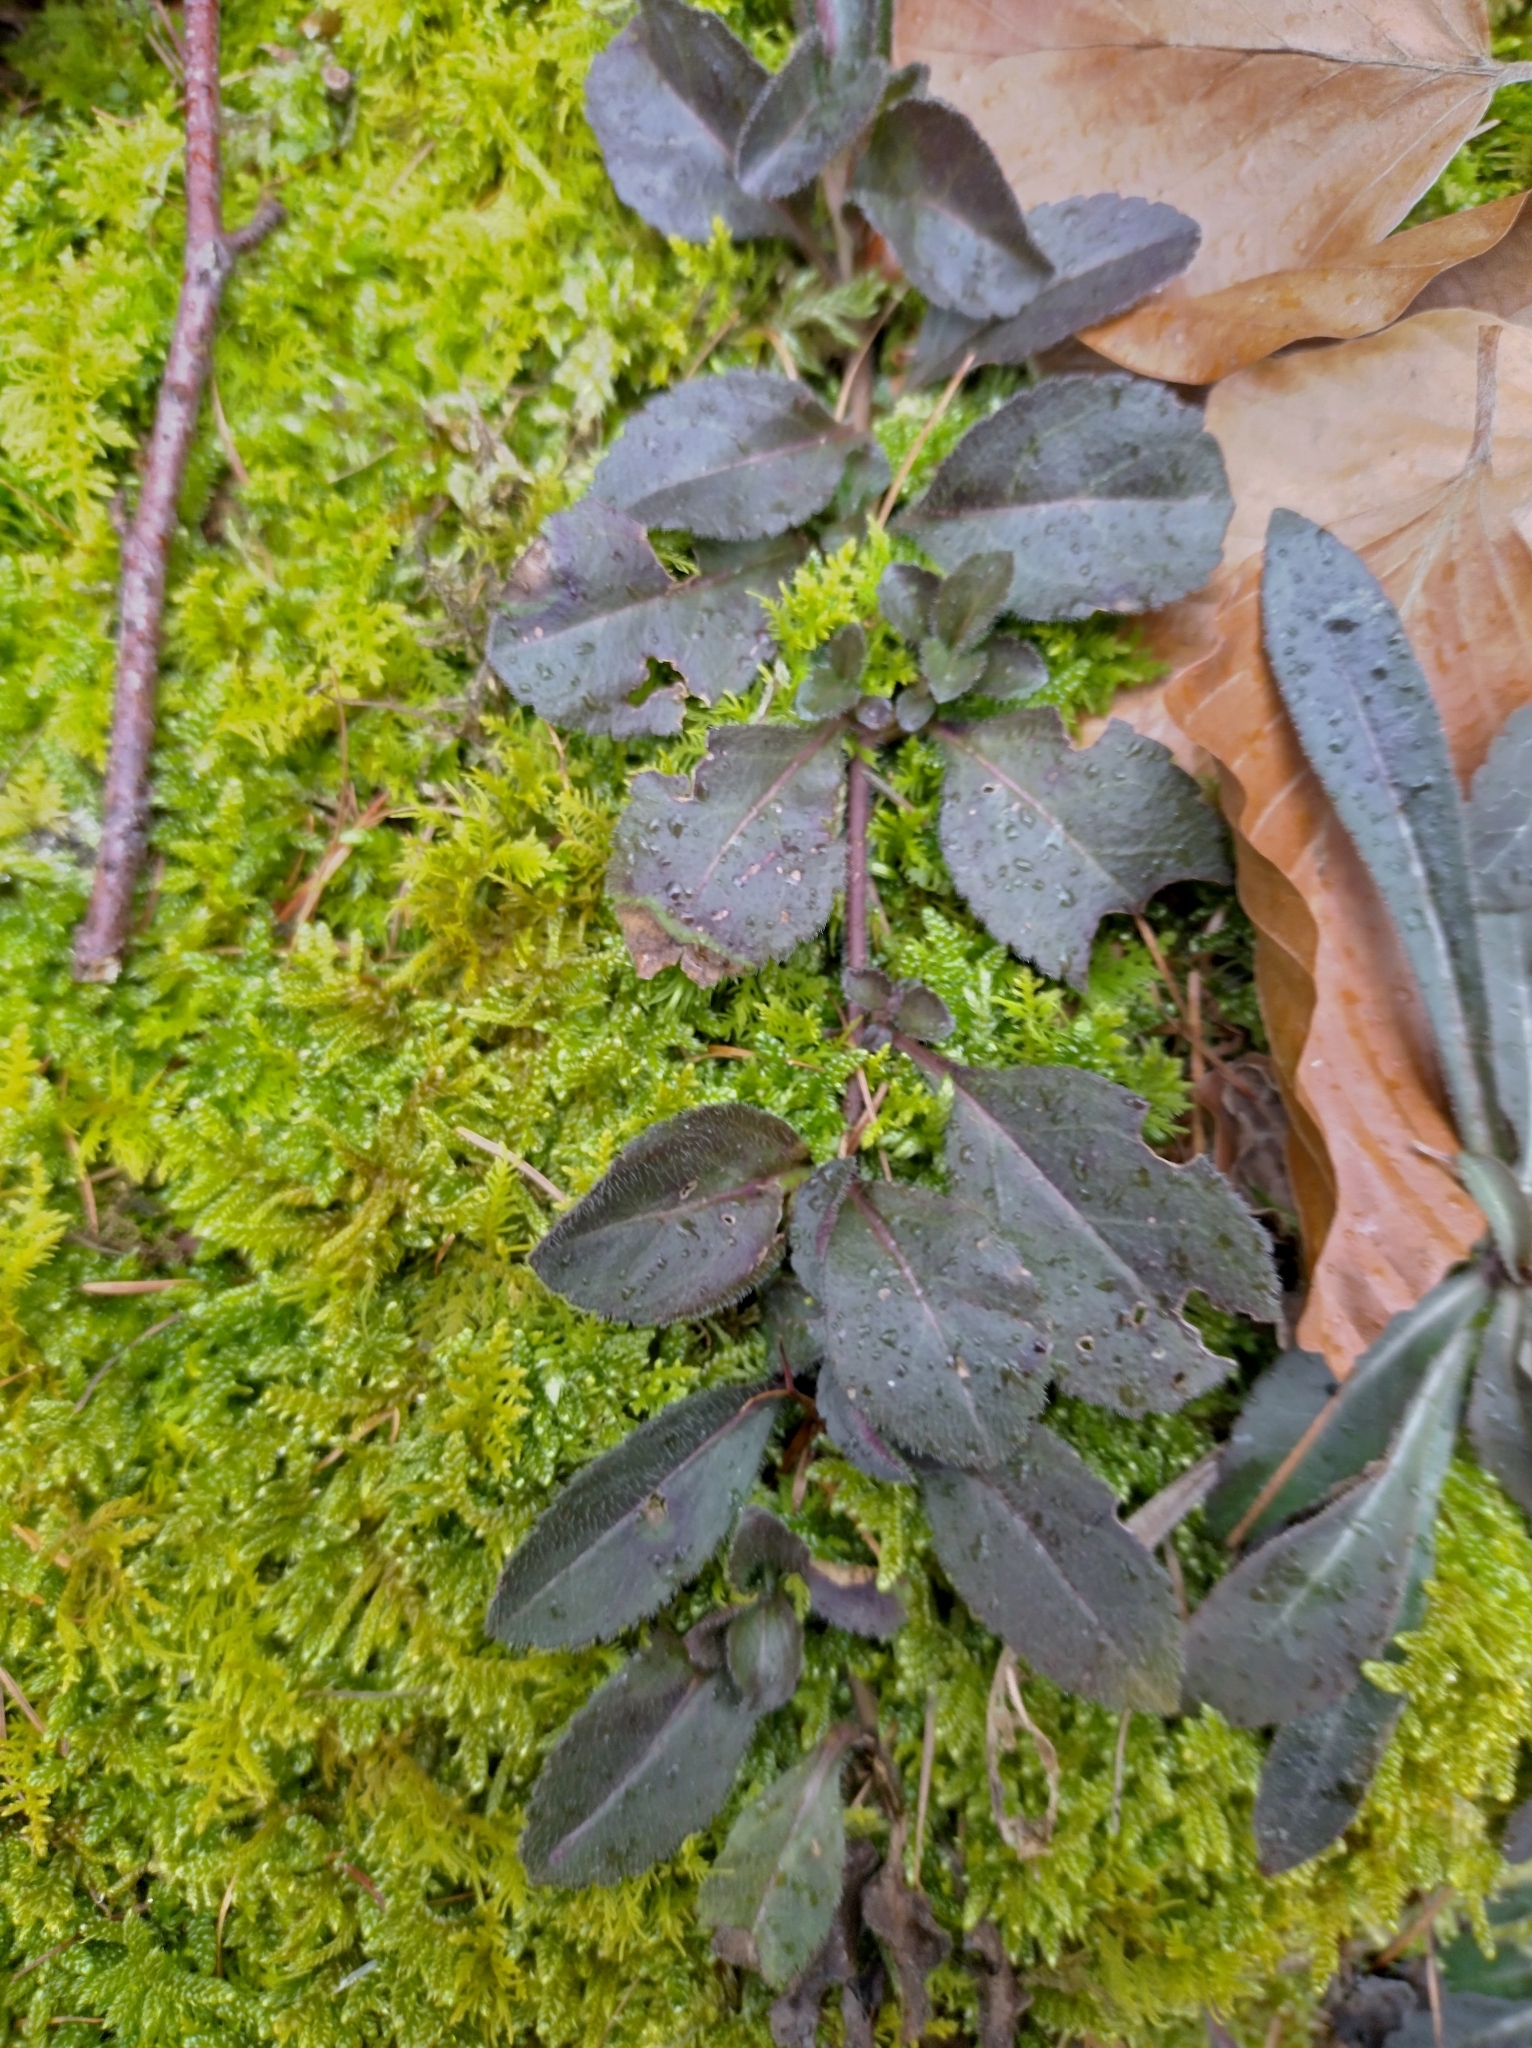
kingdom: Plantae
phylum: Tracheophyta
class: Magnoliopsida
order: Lamiales
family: Plantaginaceae
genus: Veronica
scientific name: Veronica officinalis
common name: Common speedwell
